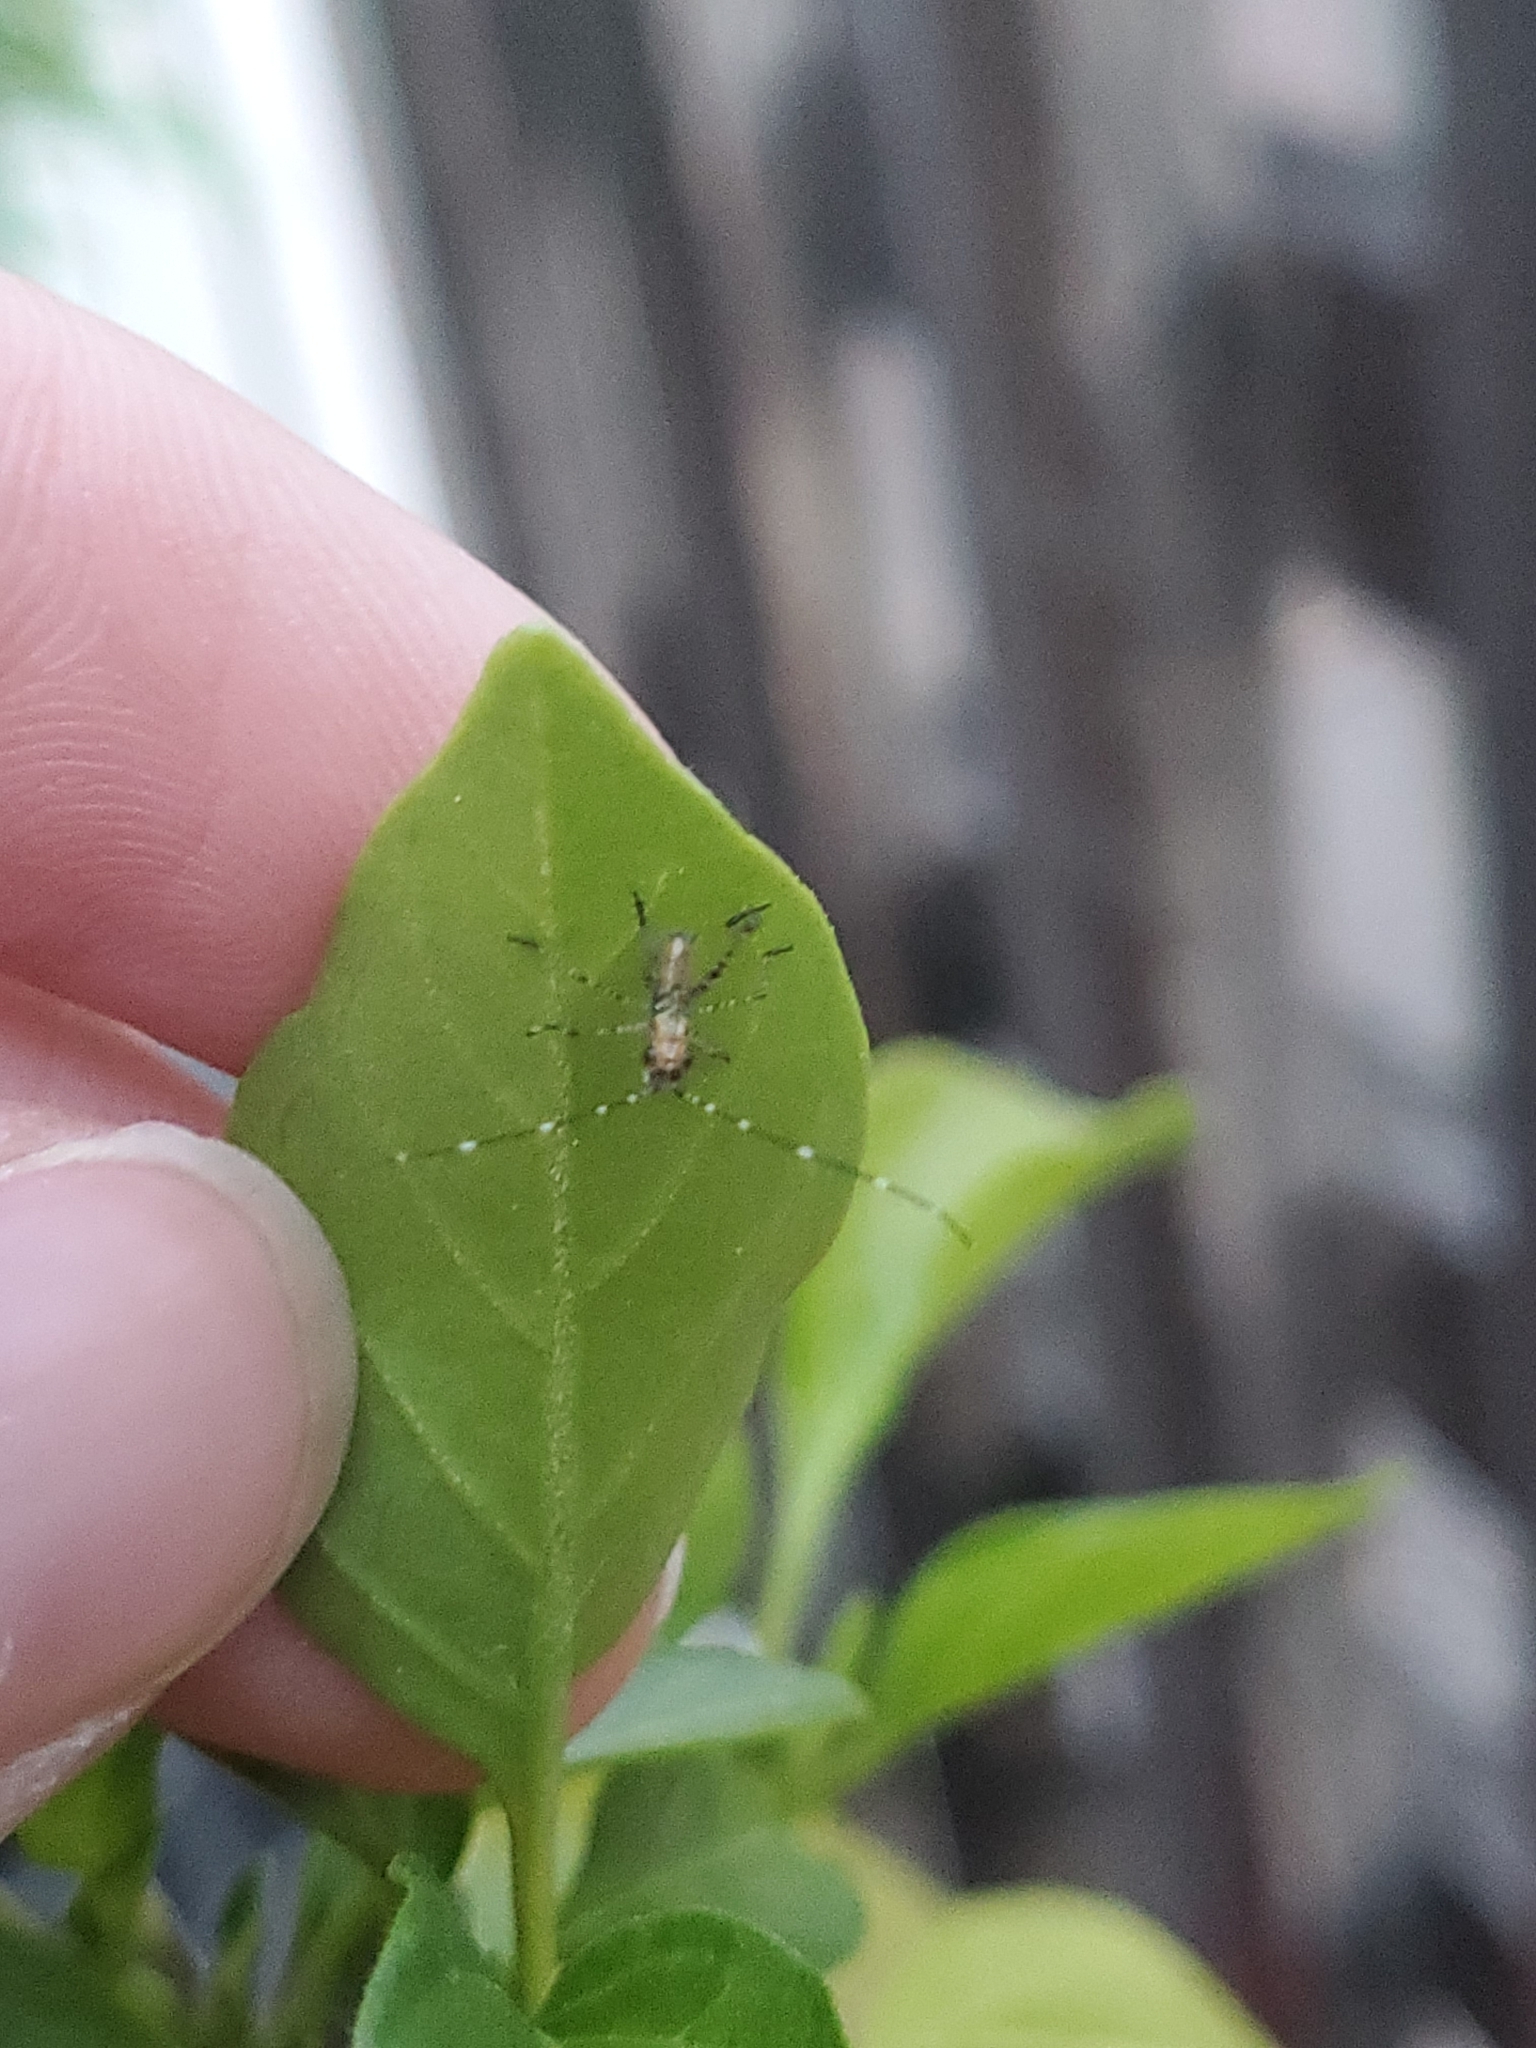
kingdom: Animalia
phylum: Arthropoda
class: Insecta
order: Orthoptera
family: Tettigoniidae
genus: Scudderia
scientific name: Scudderia furcata
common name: Fork-tailed bush katydid
